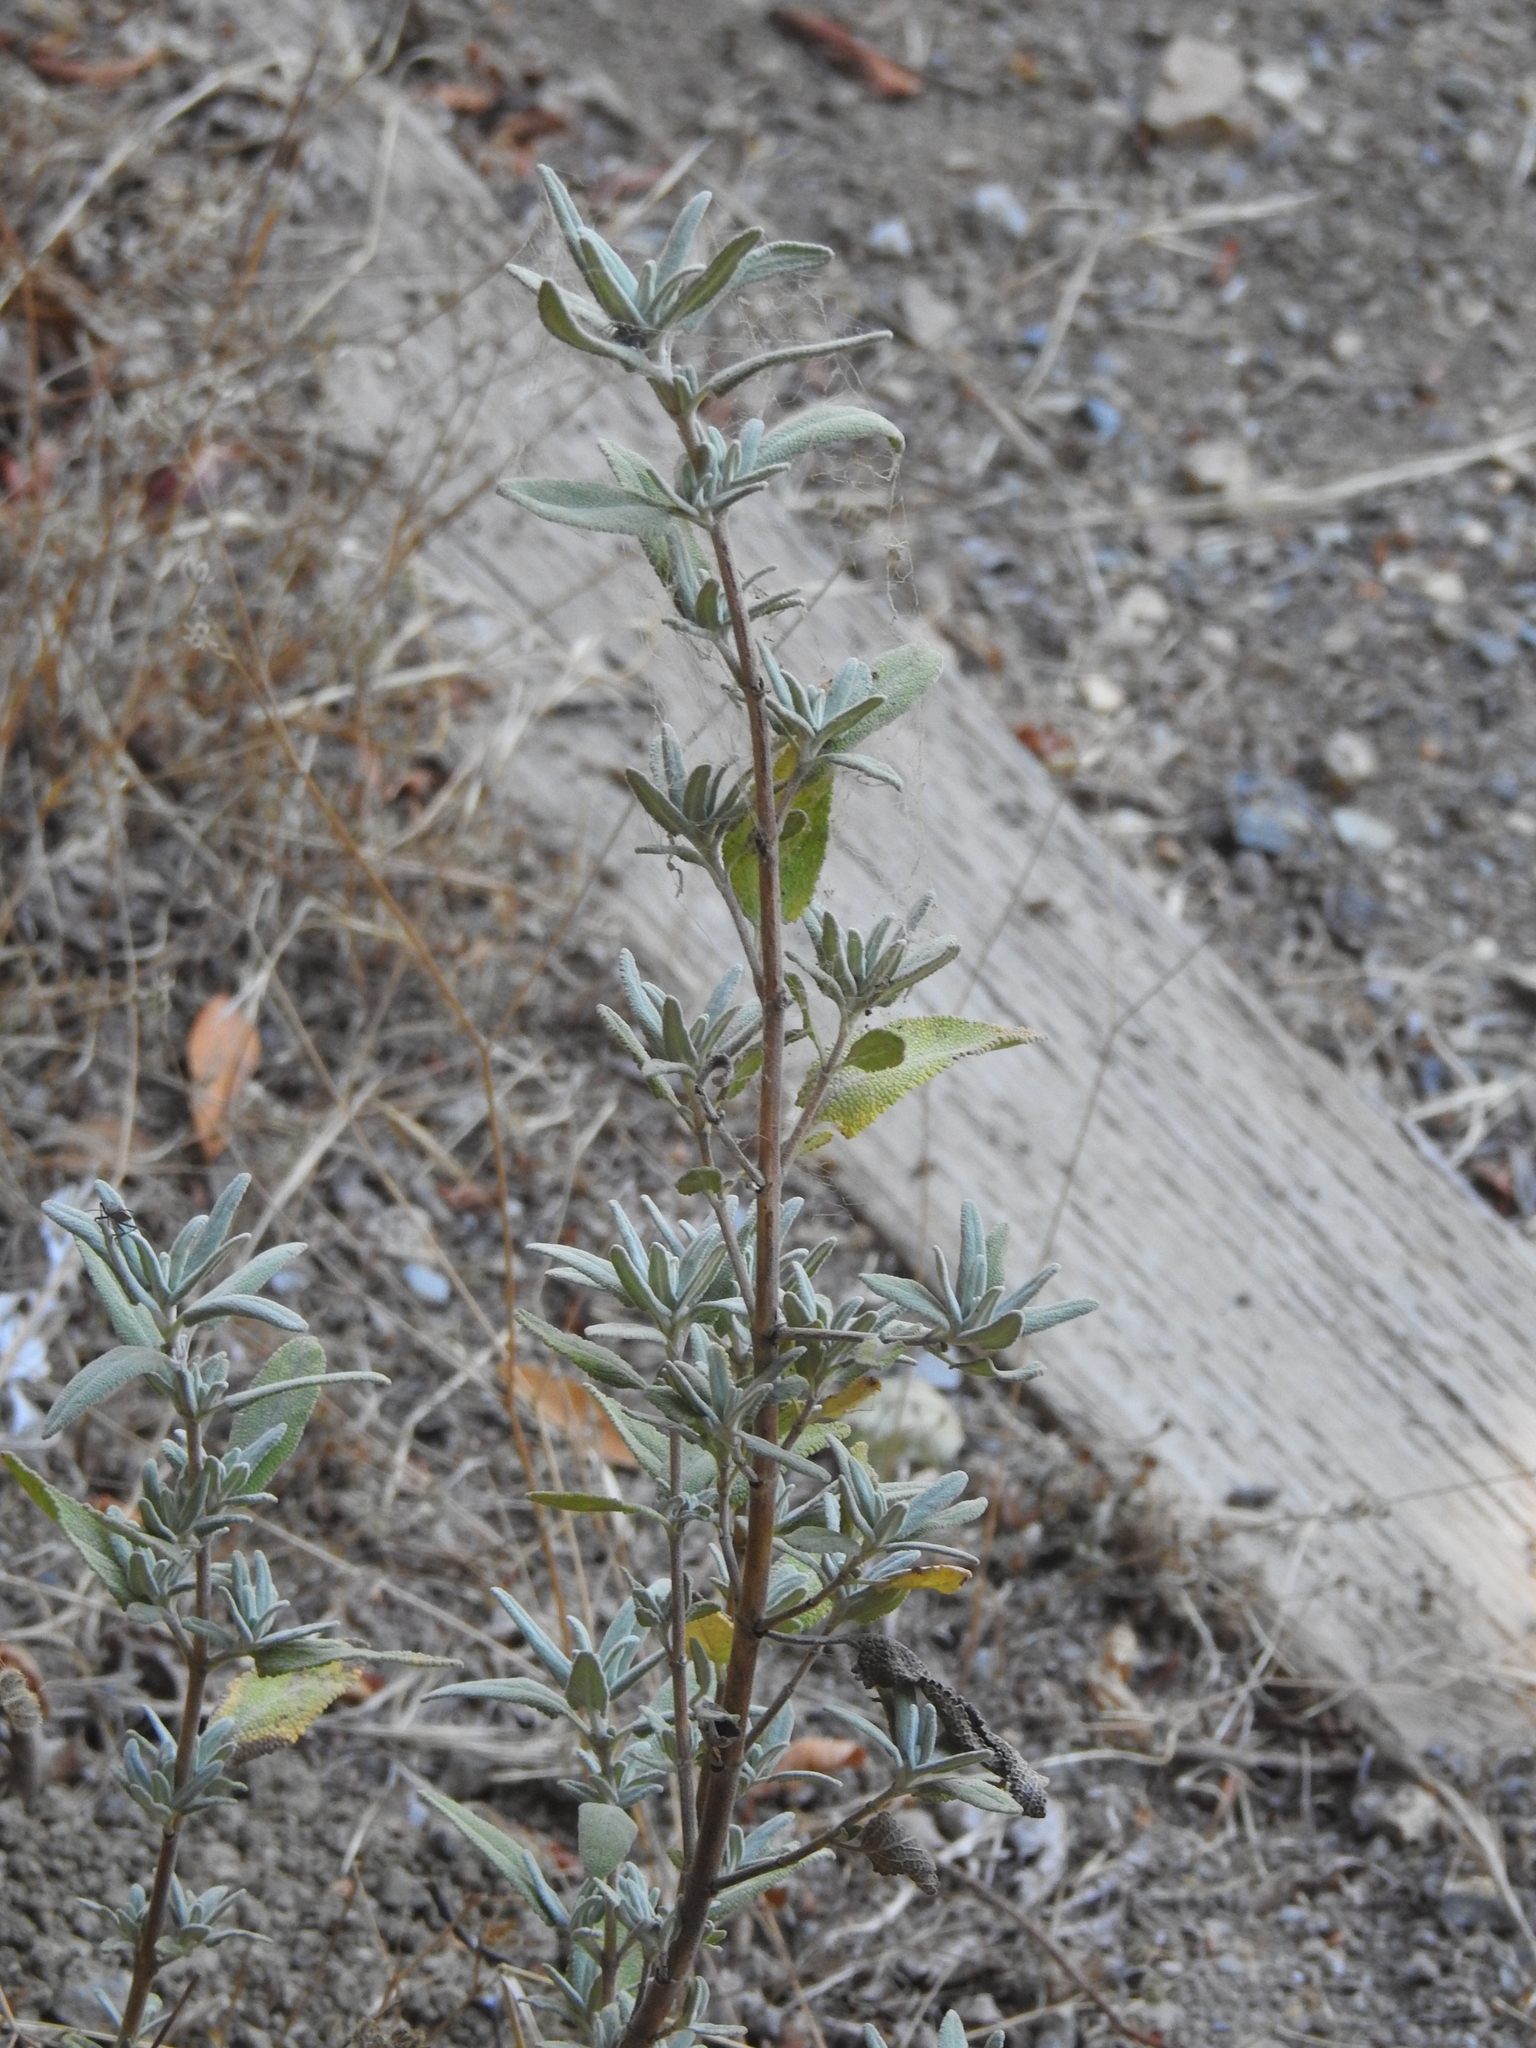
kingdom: Plantae
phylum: Tracheophyta
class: Magnoliopsida
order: Lamiales
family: Lamiaceae
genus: Salvia
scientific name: Salvia leucophylla
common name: Purple sage
